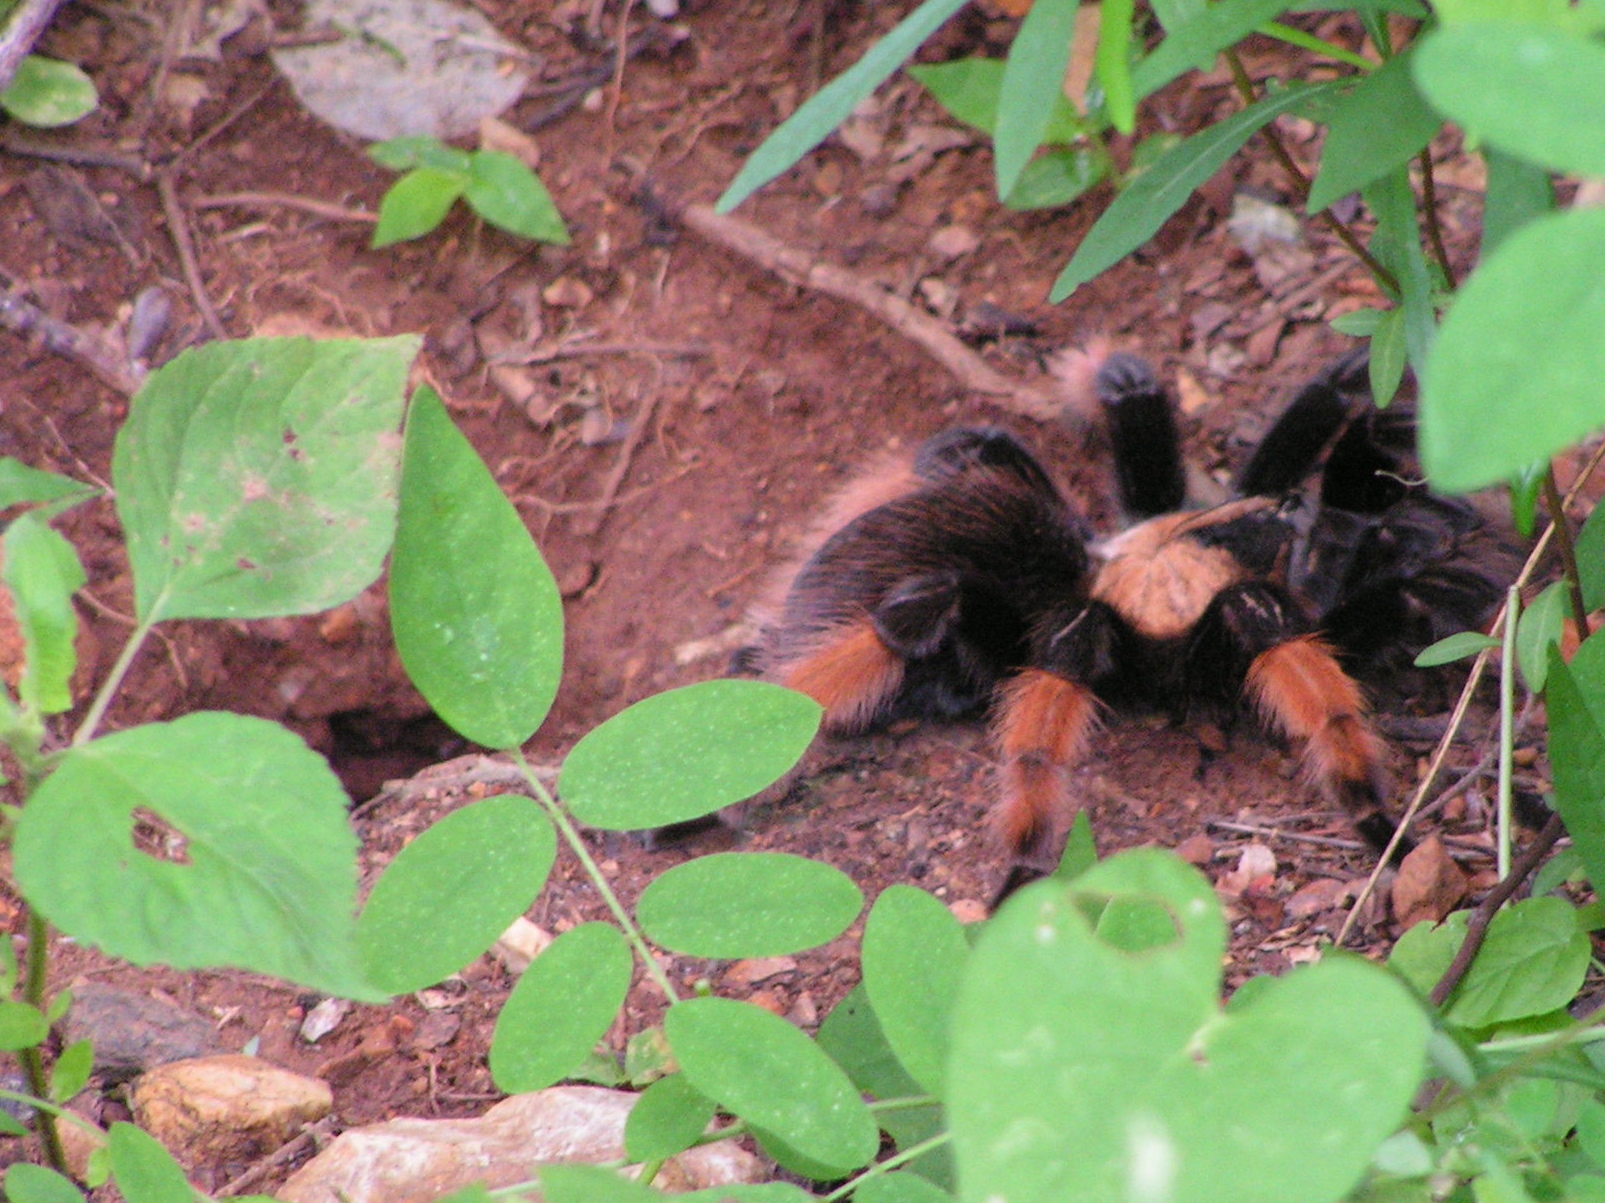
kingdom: Animalia
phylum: Arthropoda
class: Arachnida
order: Araneae
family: Theraphosidae
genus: Brachypelma
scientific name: Brachypelma emilia
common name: Mexican redleg
